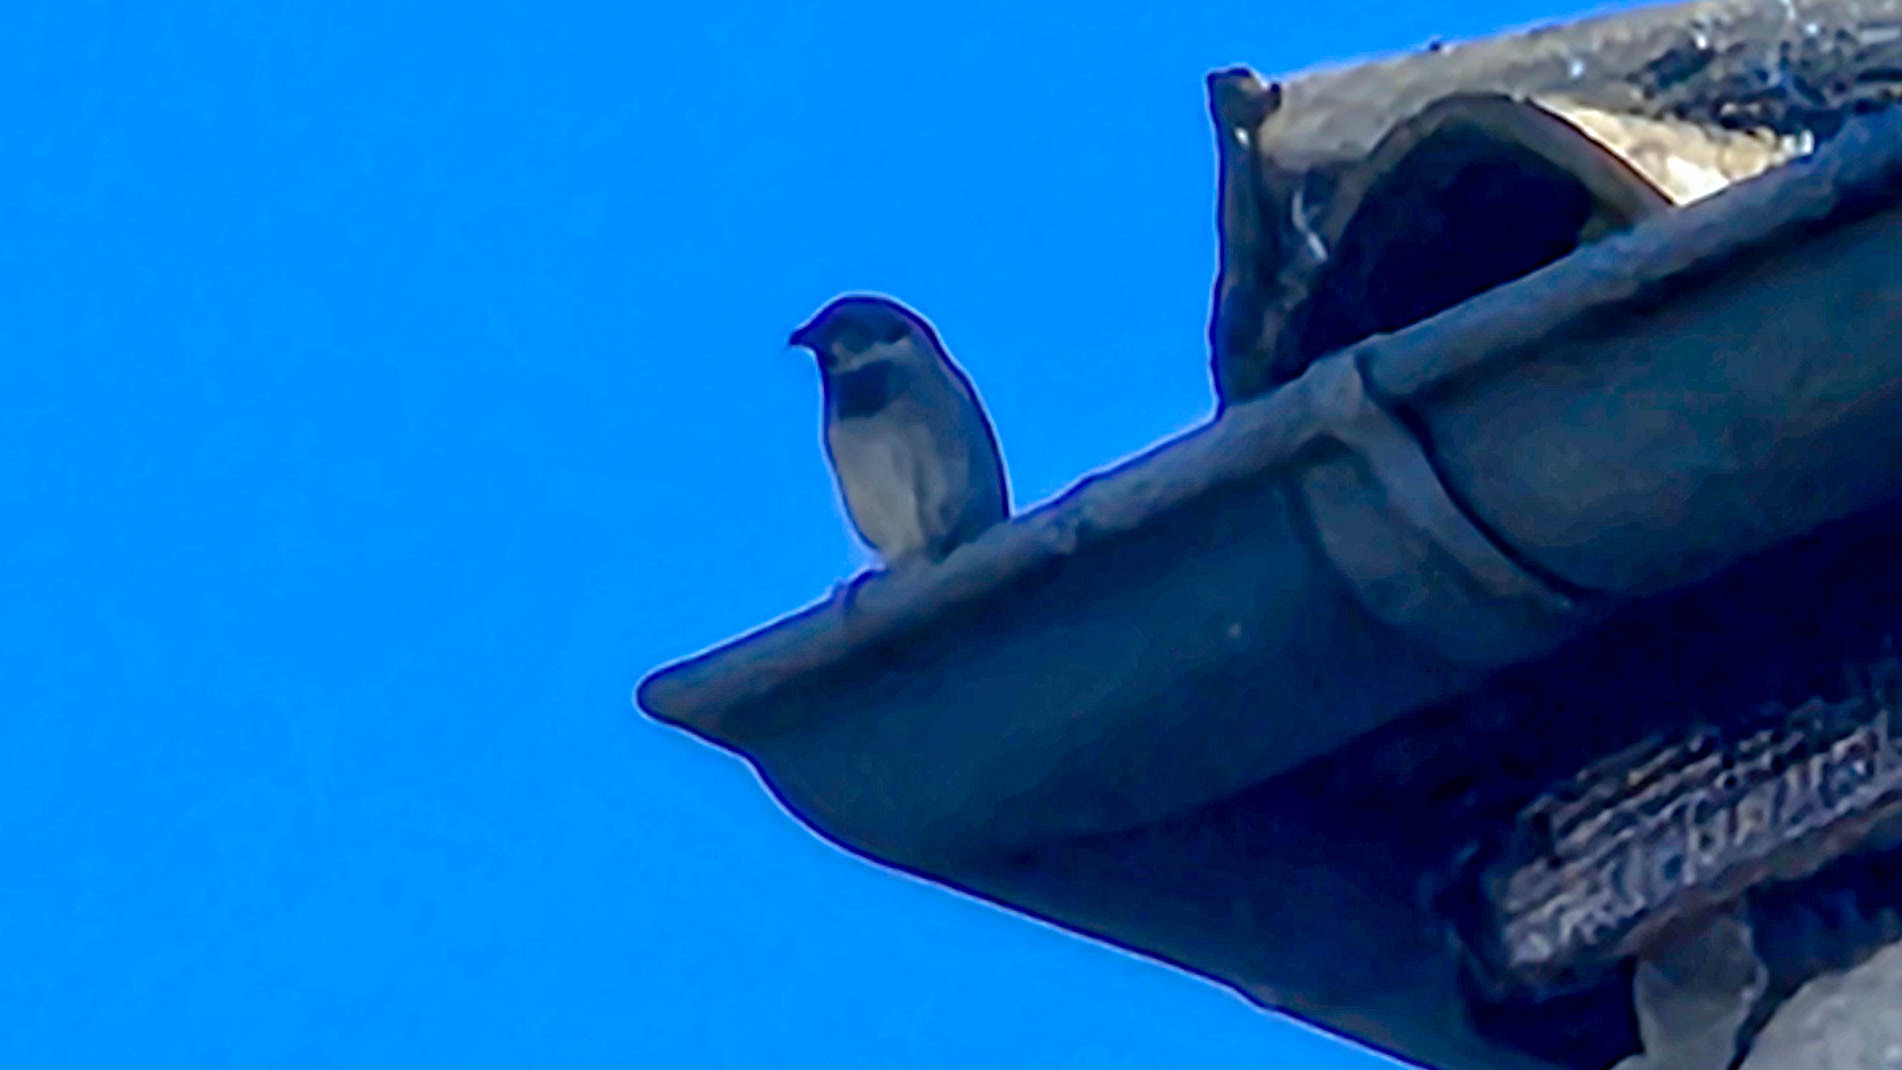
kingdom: Animalia
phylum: Chordata
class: Aves
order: Passeriformes
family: Passeridae
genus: Passer
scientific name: Passer domesticus
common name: House sparrow
